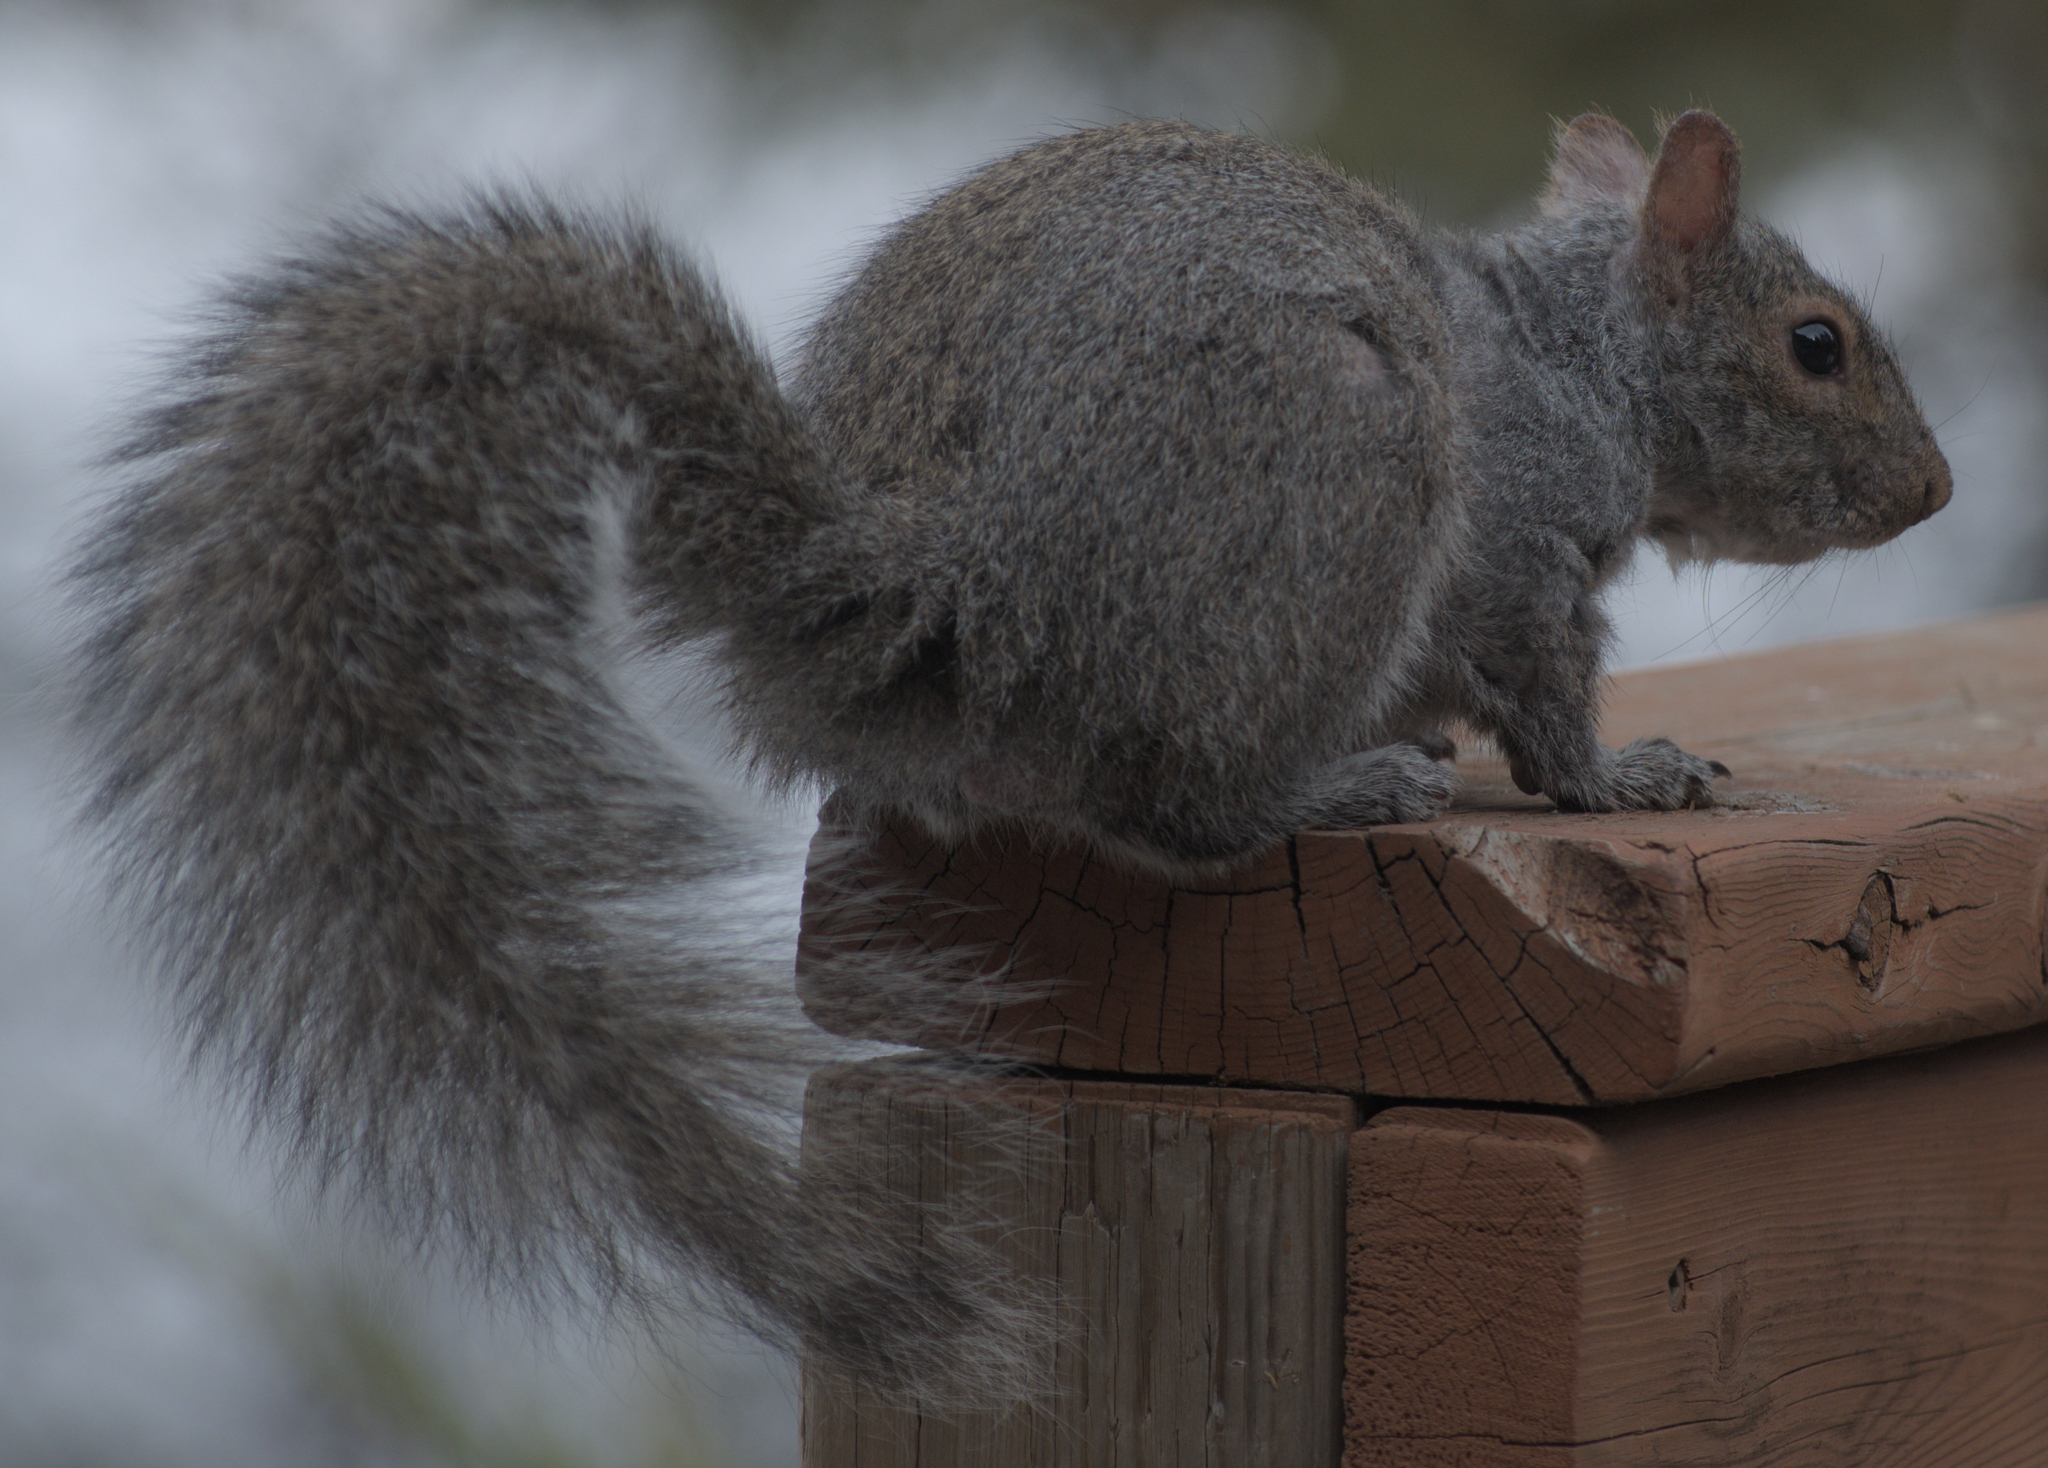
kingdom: Animalia
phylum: Chordata
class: Mammalia
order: Rodentia
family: Sciuridae
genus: Sciurus
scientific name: Sciurus carolinensis
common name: Eastern gray squirrel
